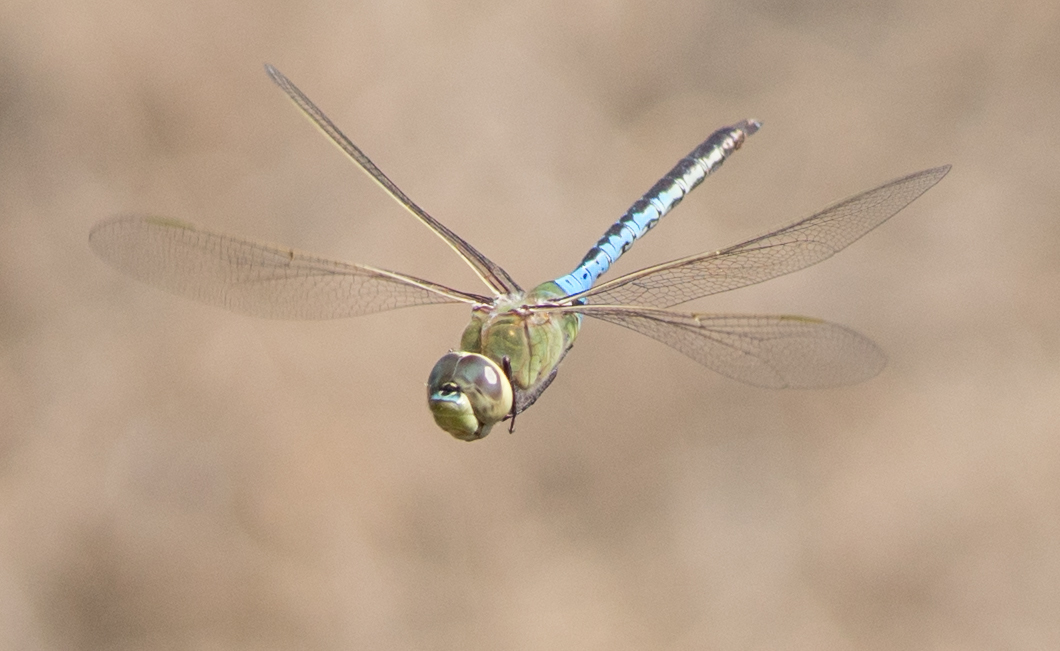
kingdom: Animalia
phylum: Arthropoda
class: Insecta
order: Odonata
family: Aeshnidae
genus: Anax
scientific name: Anax junius
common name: Common green darner
